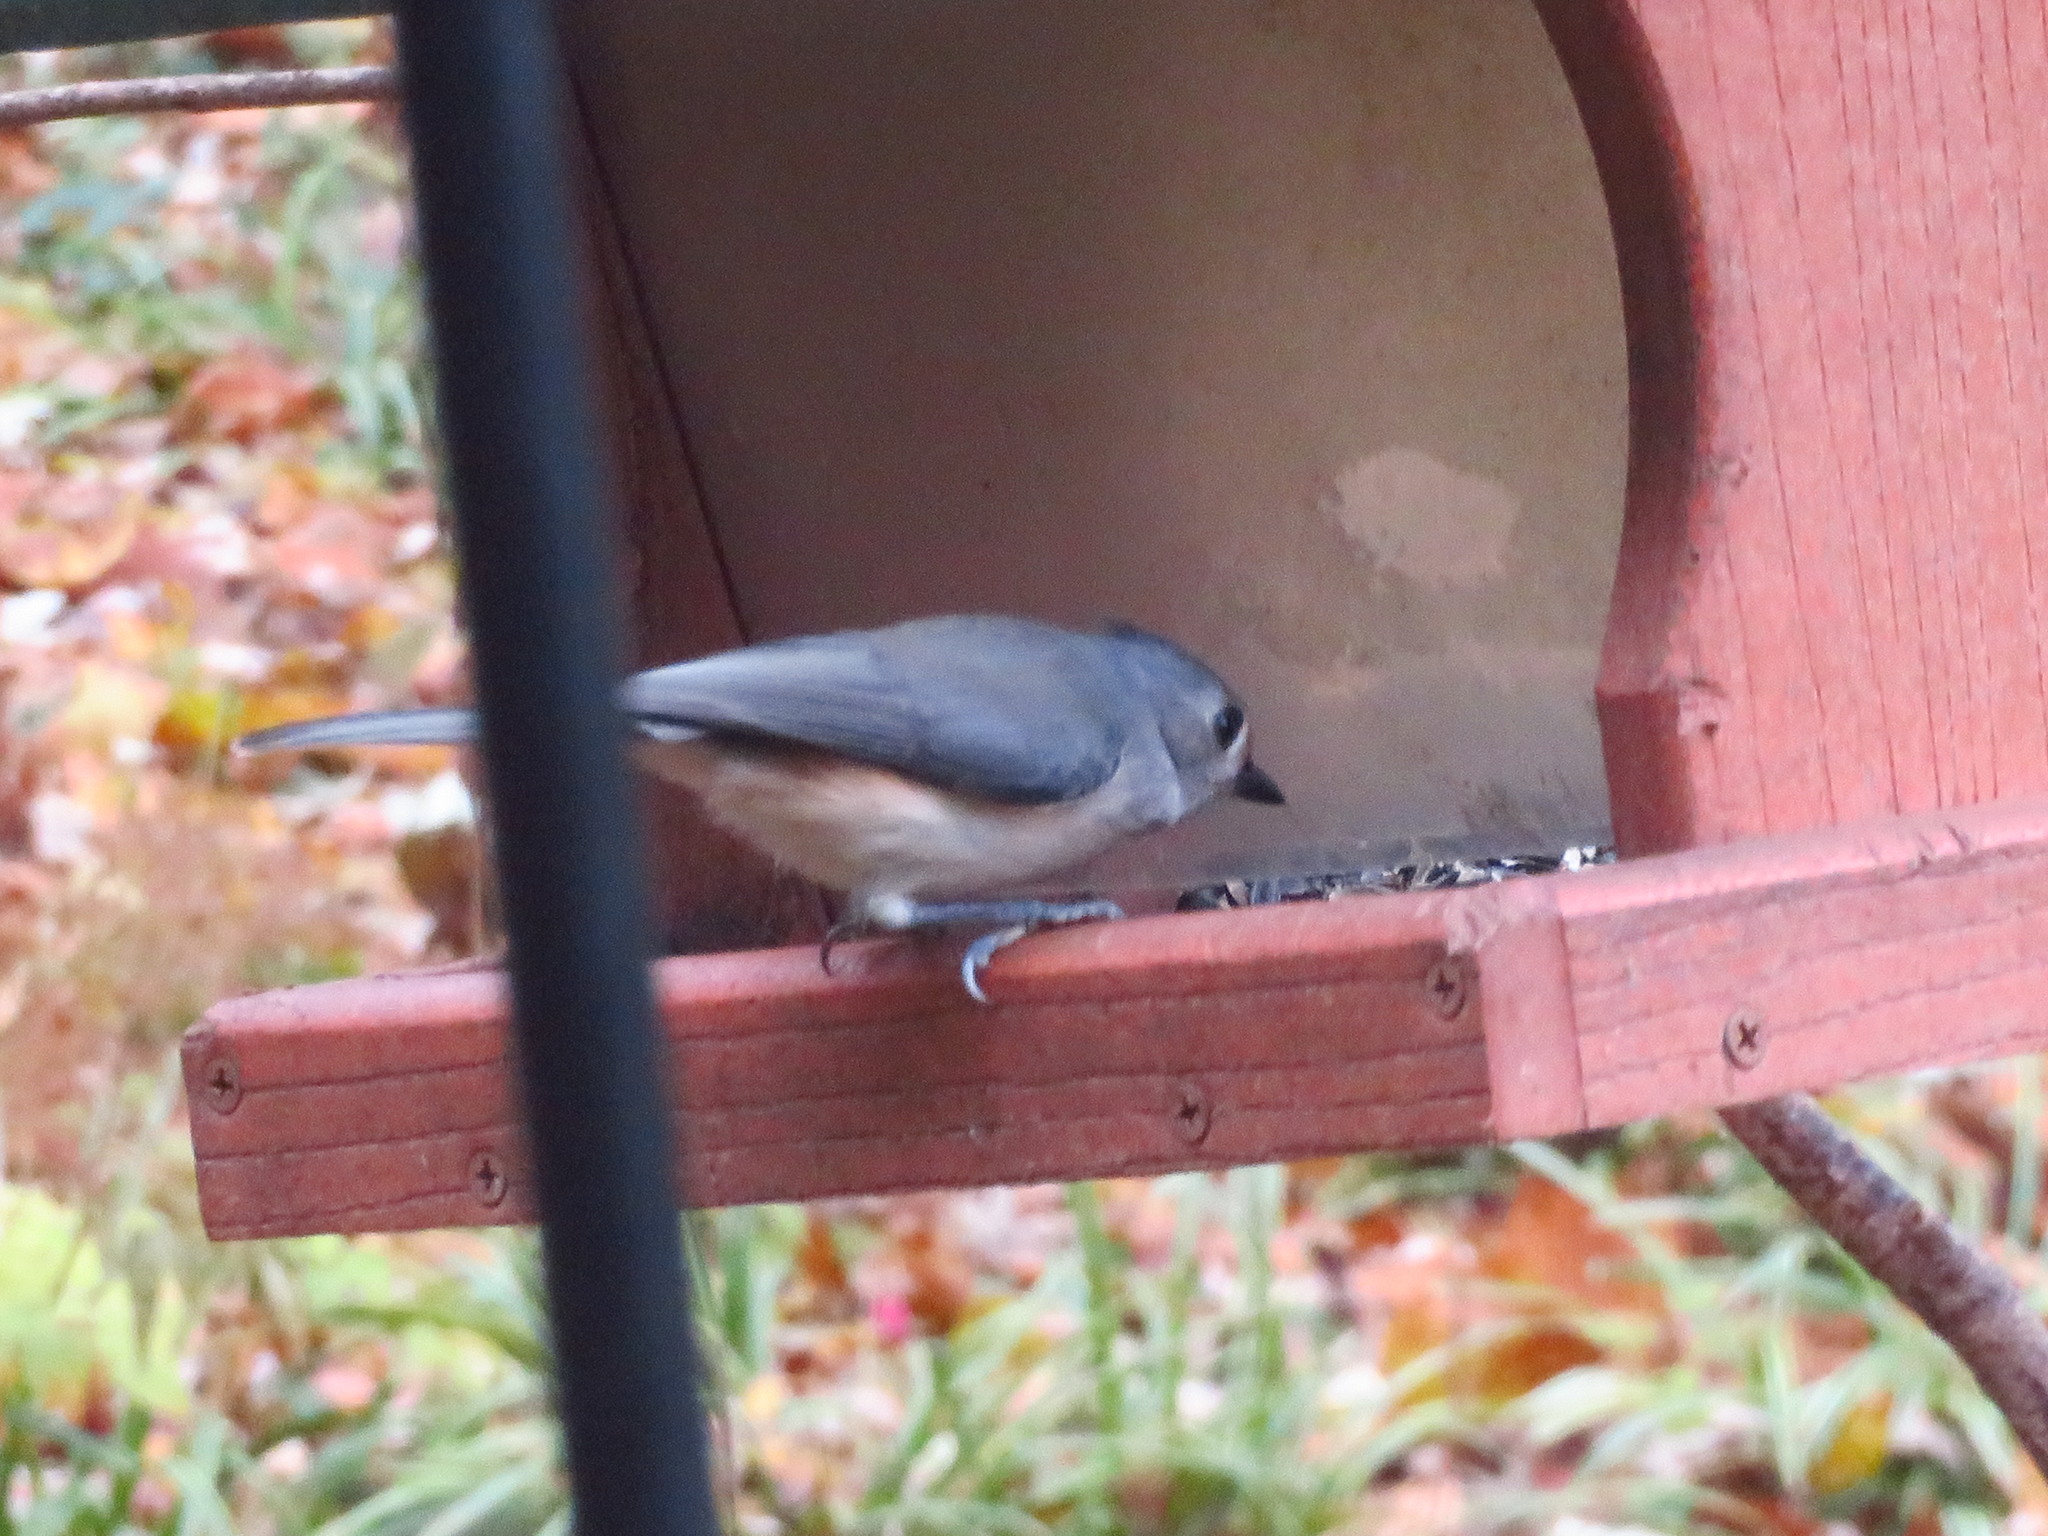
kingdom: Animalia
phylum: Chordata
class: Aves
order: Passeriformes
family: Paridae
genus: Baeolophus
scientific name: Baeolophus bicolor
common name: Tufted titmouse
